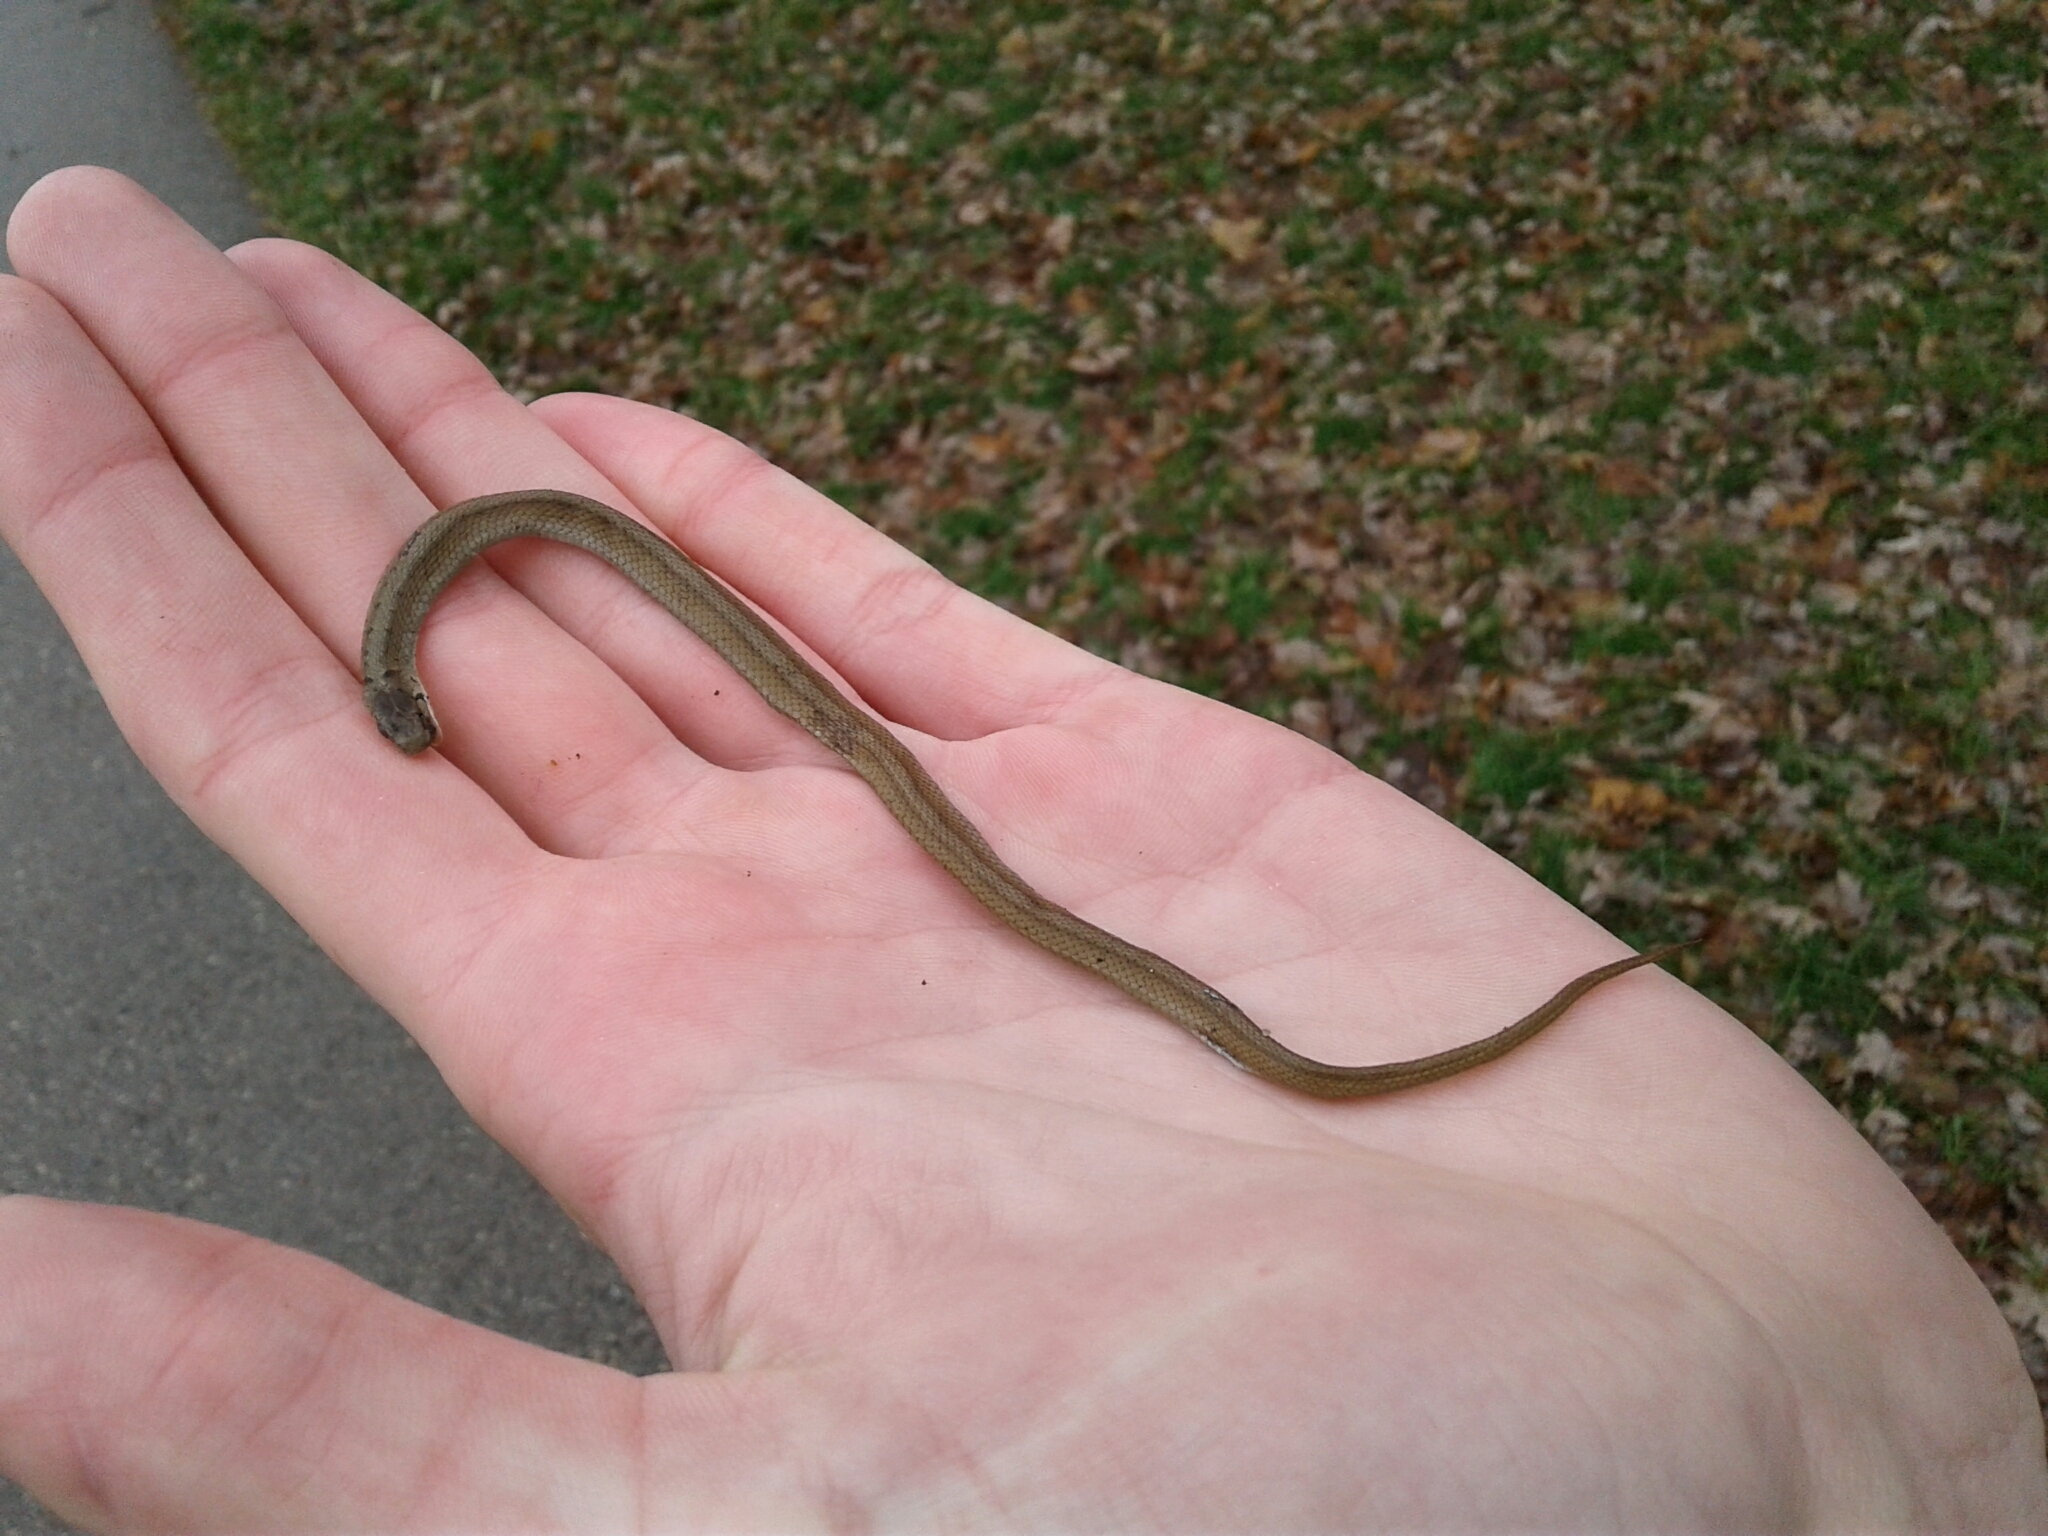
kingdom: Animalia
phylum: Chordata
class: Squamata
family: Colubridae
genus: Storeria
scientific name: Storeria dekayi
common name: (dekay’s) brown snake
